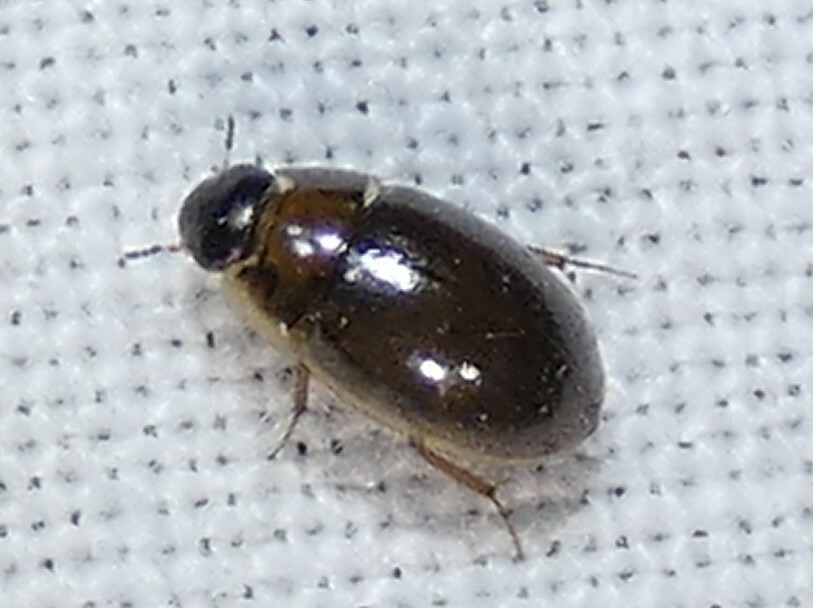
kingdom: Animalia
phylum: Arthropoda
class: Insecta
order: Coleoptera
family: Hydrophilidae
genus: Enochrus
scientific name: Enochrus
